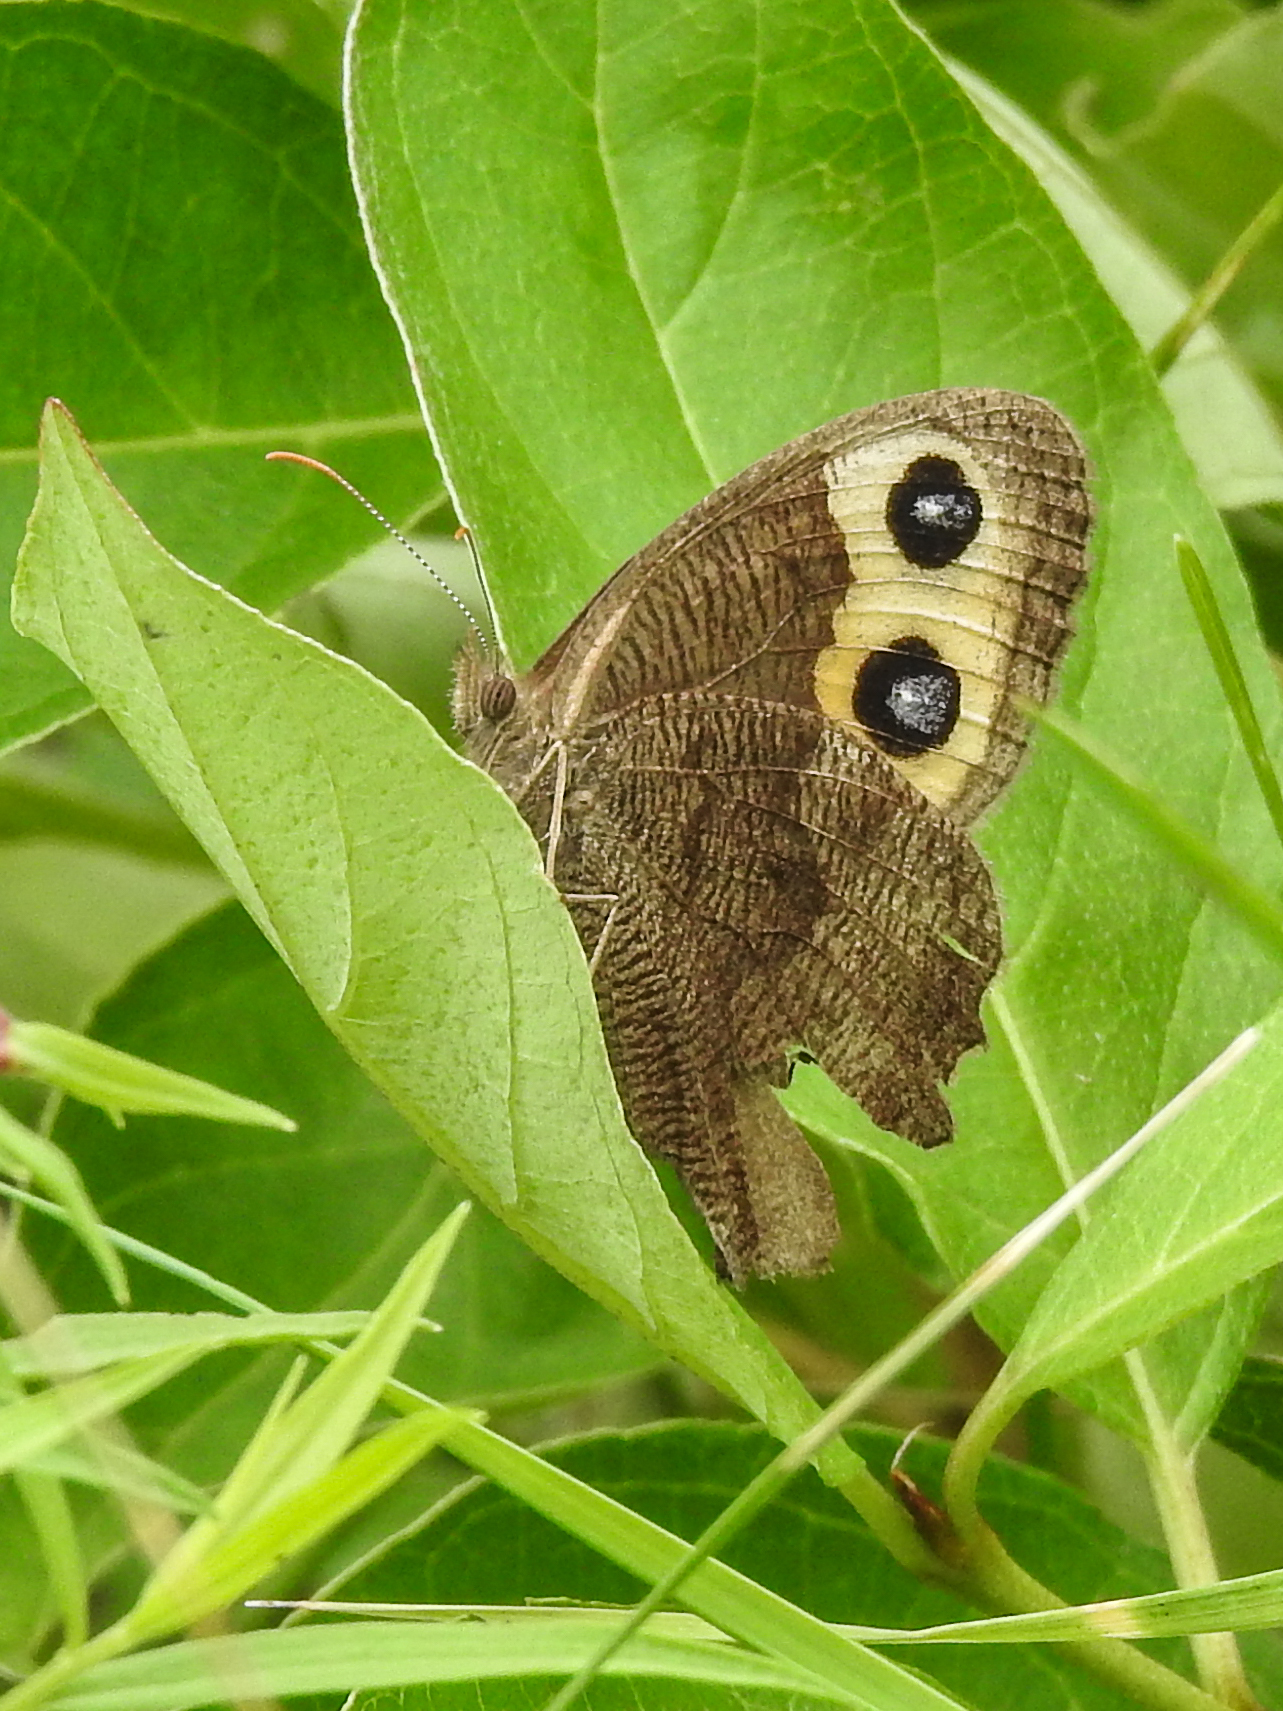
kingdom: Animalia
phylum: Arthropoda
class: Insecta
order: Lepidoptera
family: Nymphalidae
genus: Cercyonis
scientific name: Cercyonis pegala
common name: Common wood-nymph
